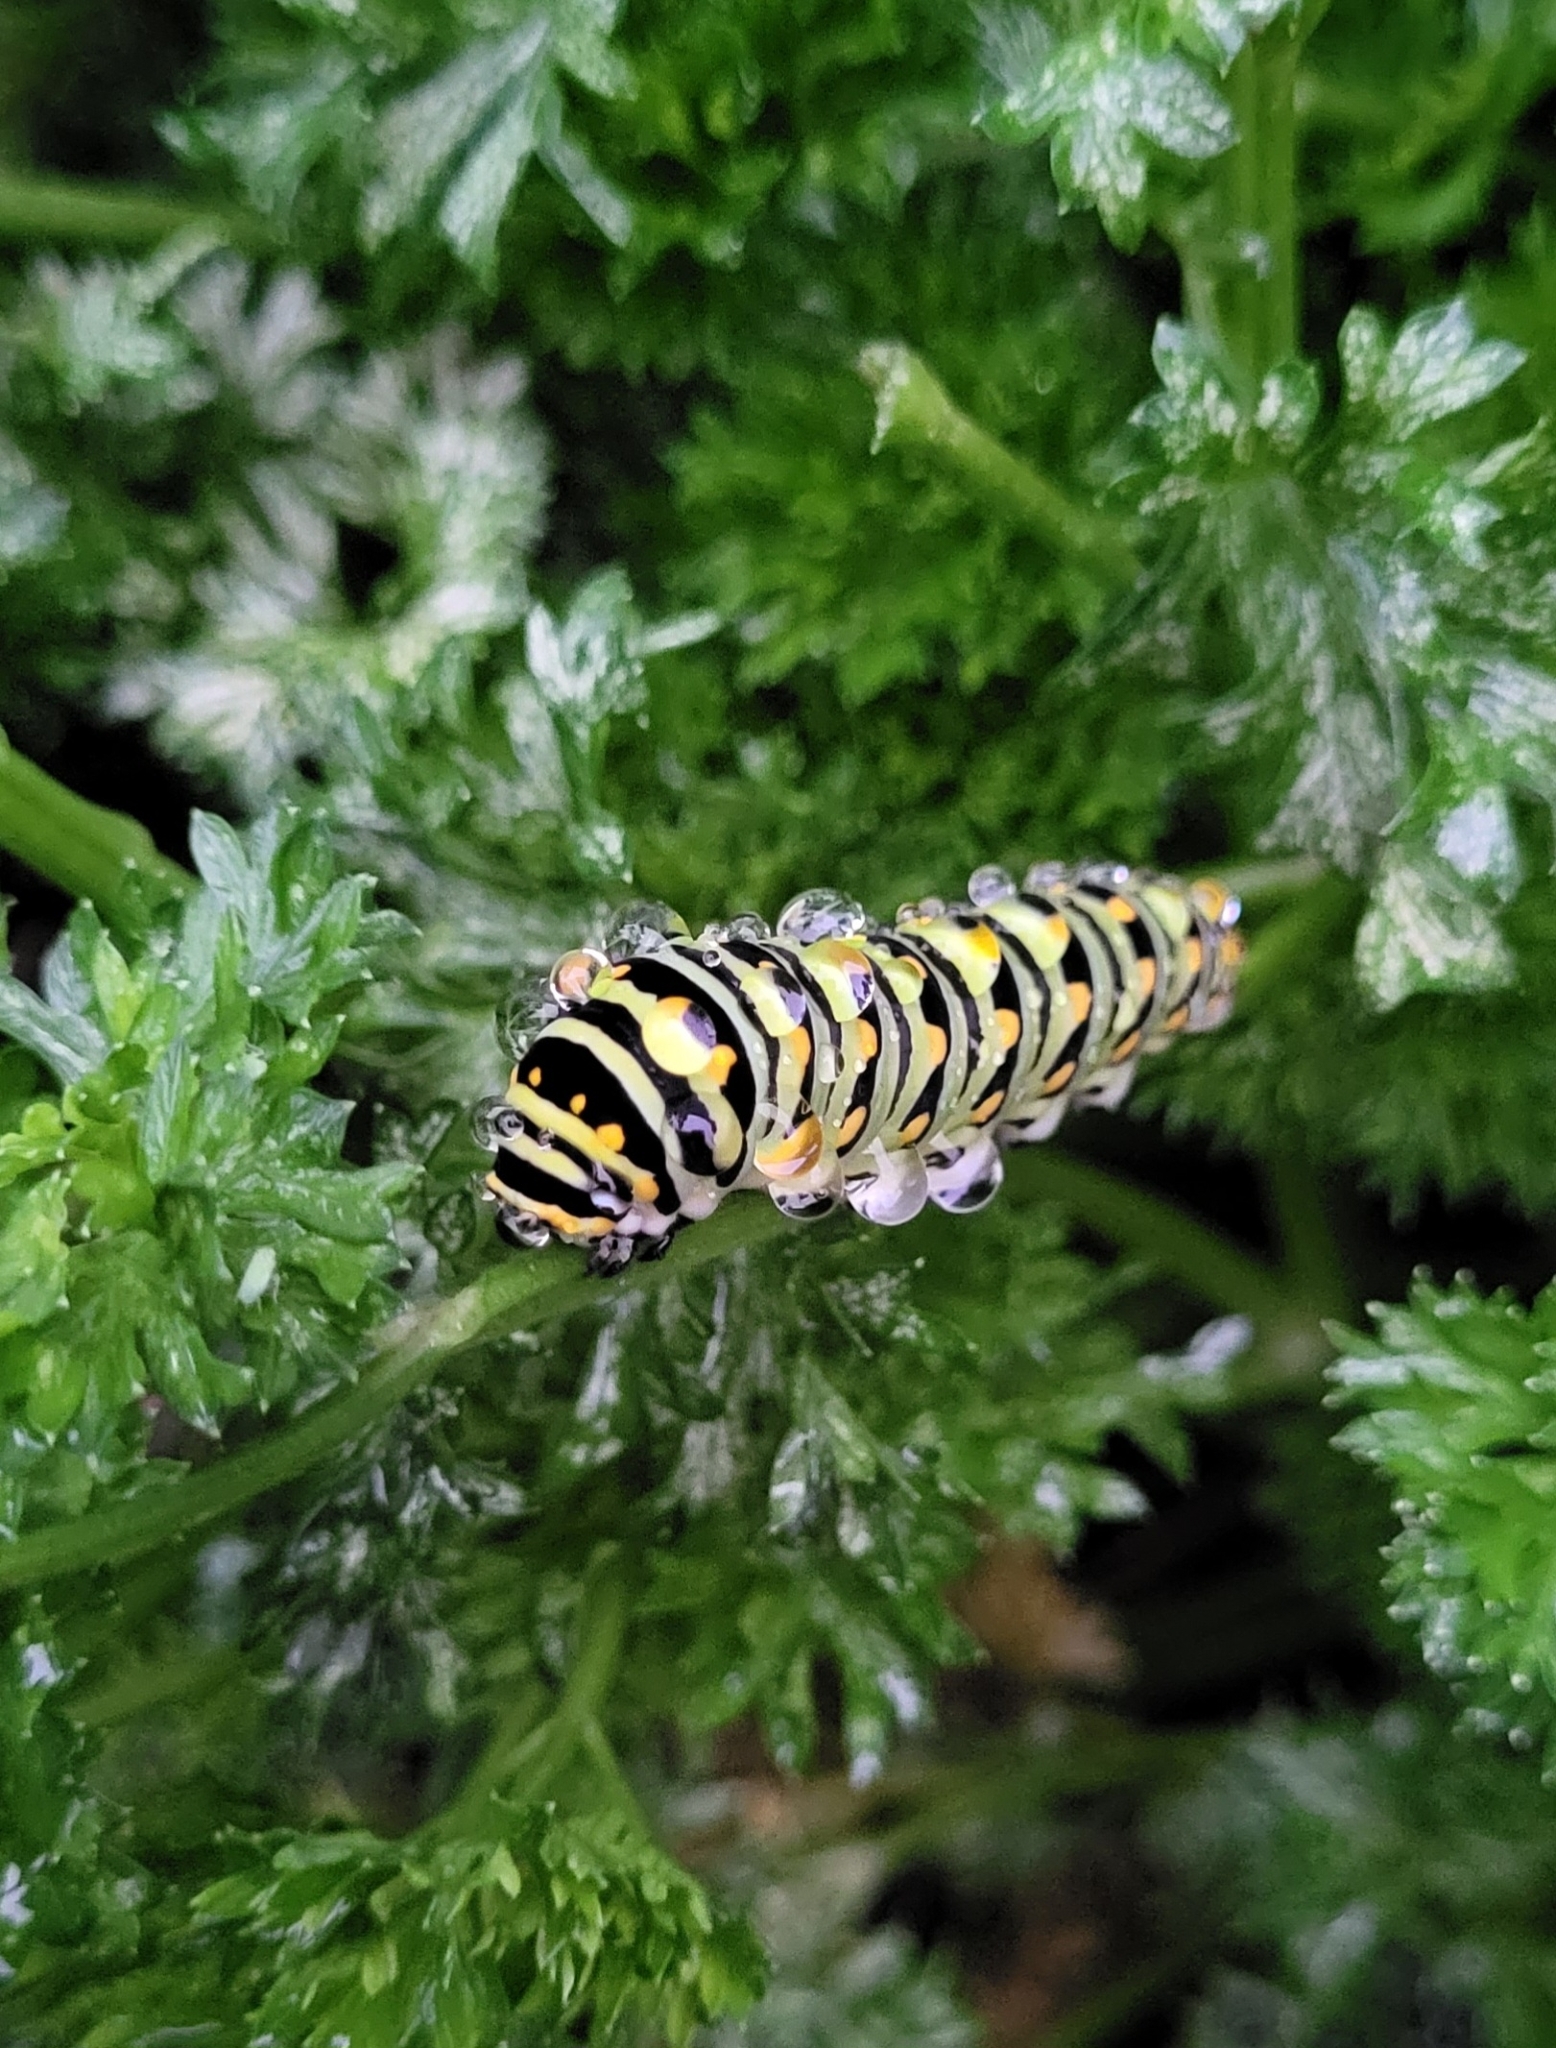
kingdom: Animalia
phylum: Arthropoda
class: Insecta
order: Lepidoptera
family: Papilionidae
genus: Papilio
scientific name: Papilio polyxenes
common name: Black swallowtail
